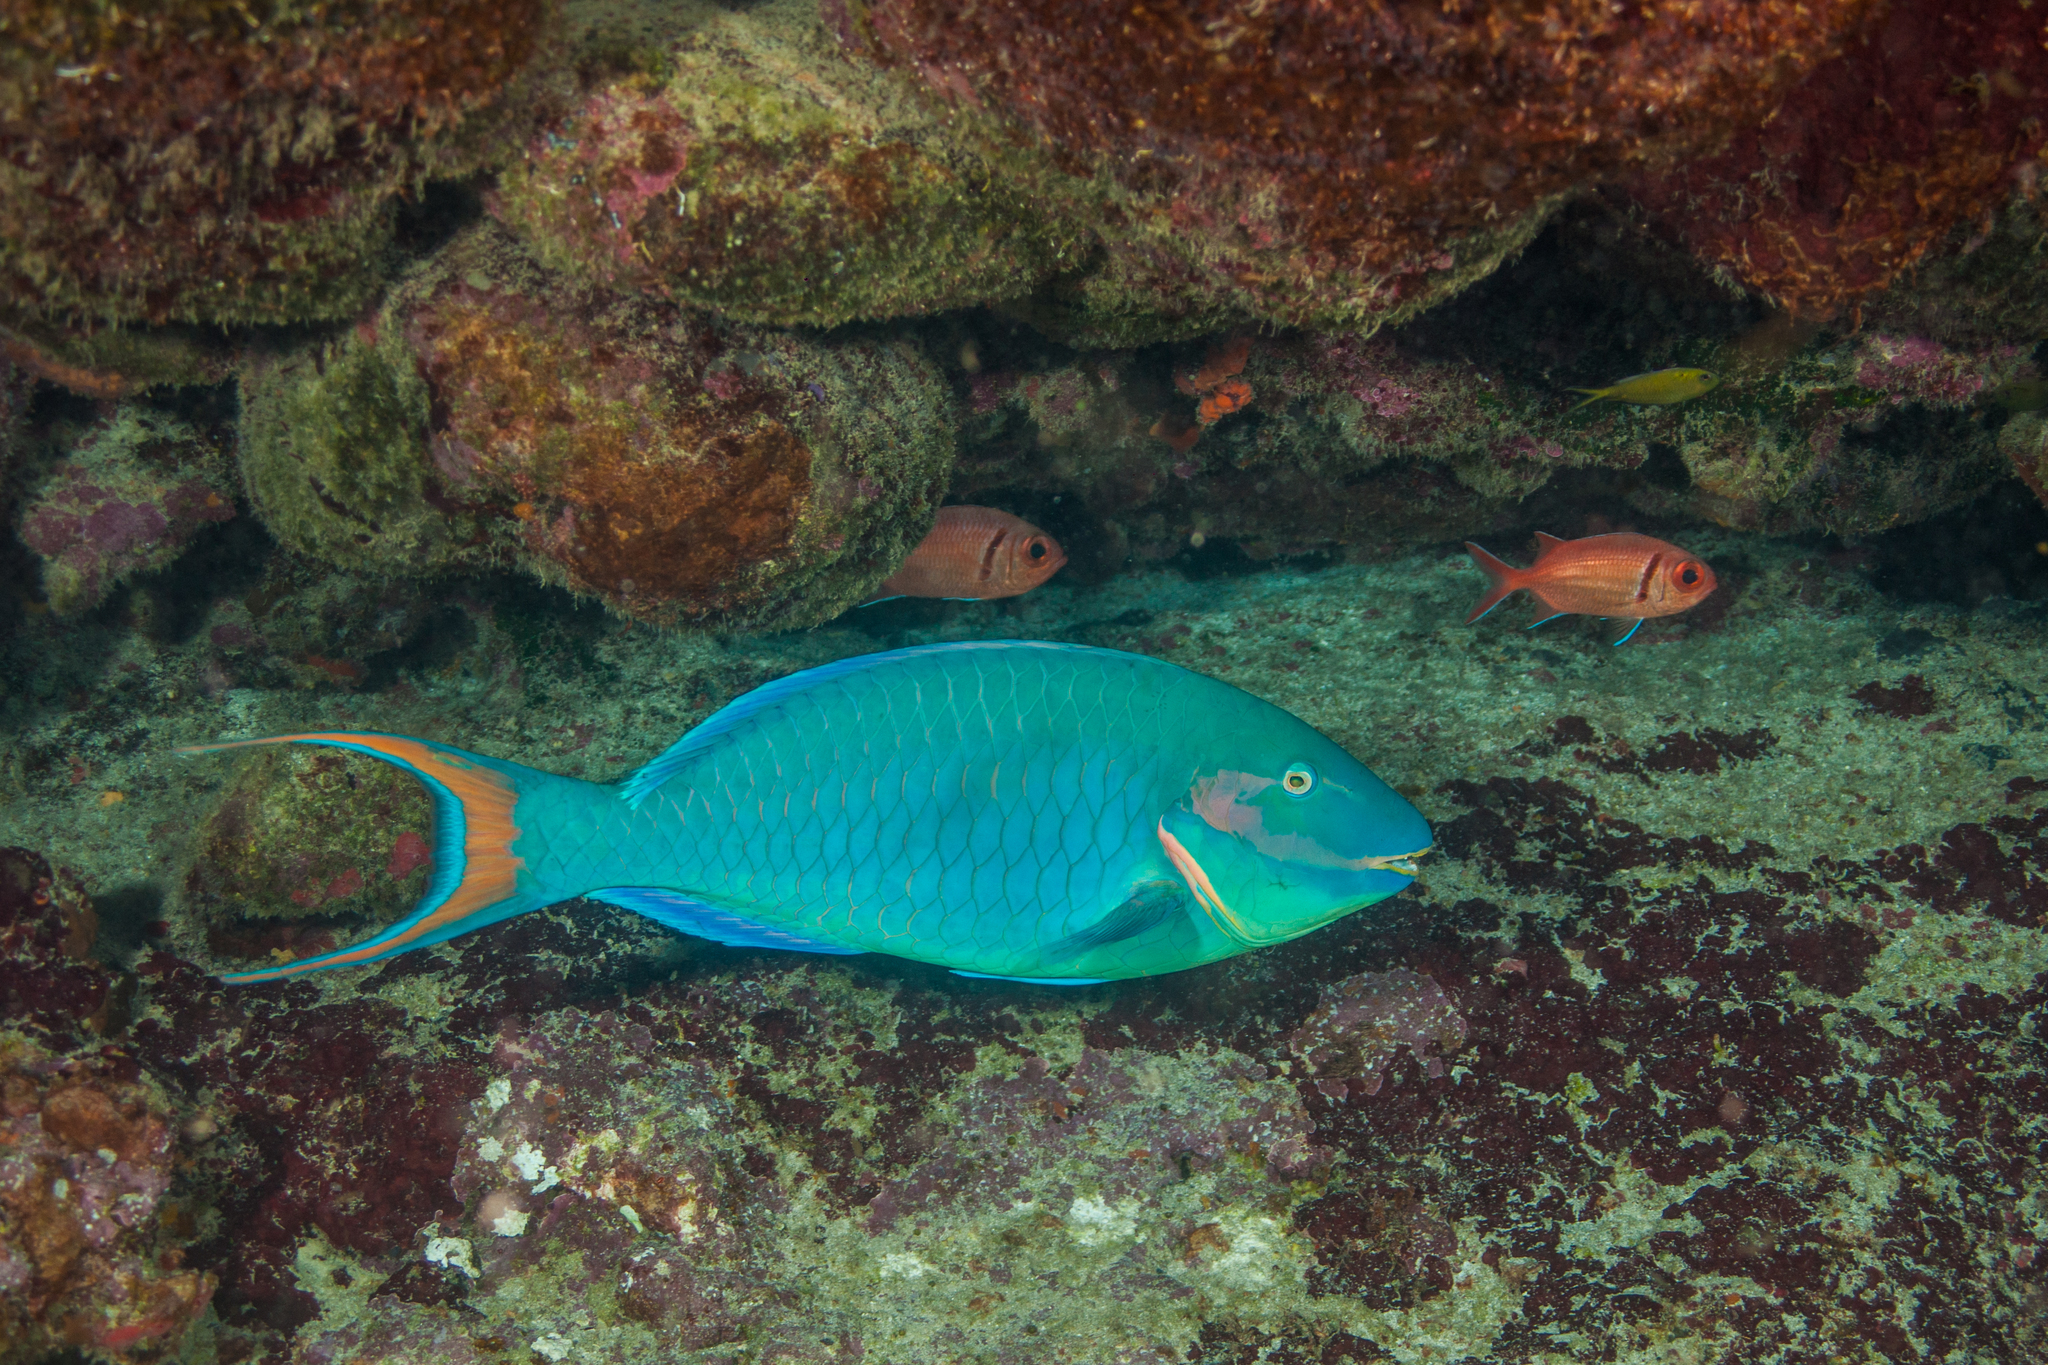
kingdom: Animalia
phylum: Chordata
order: Perciformes
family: Scaridae
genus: Sparisoma
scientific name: Sparisoma amplum
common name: Reef parrotfish
